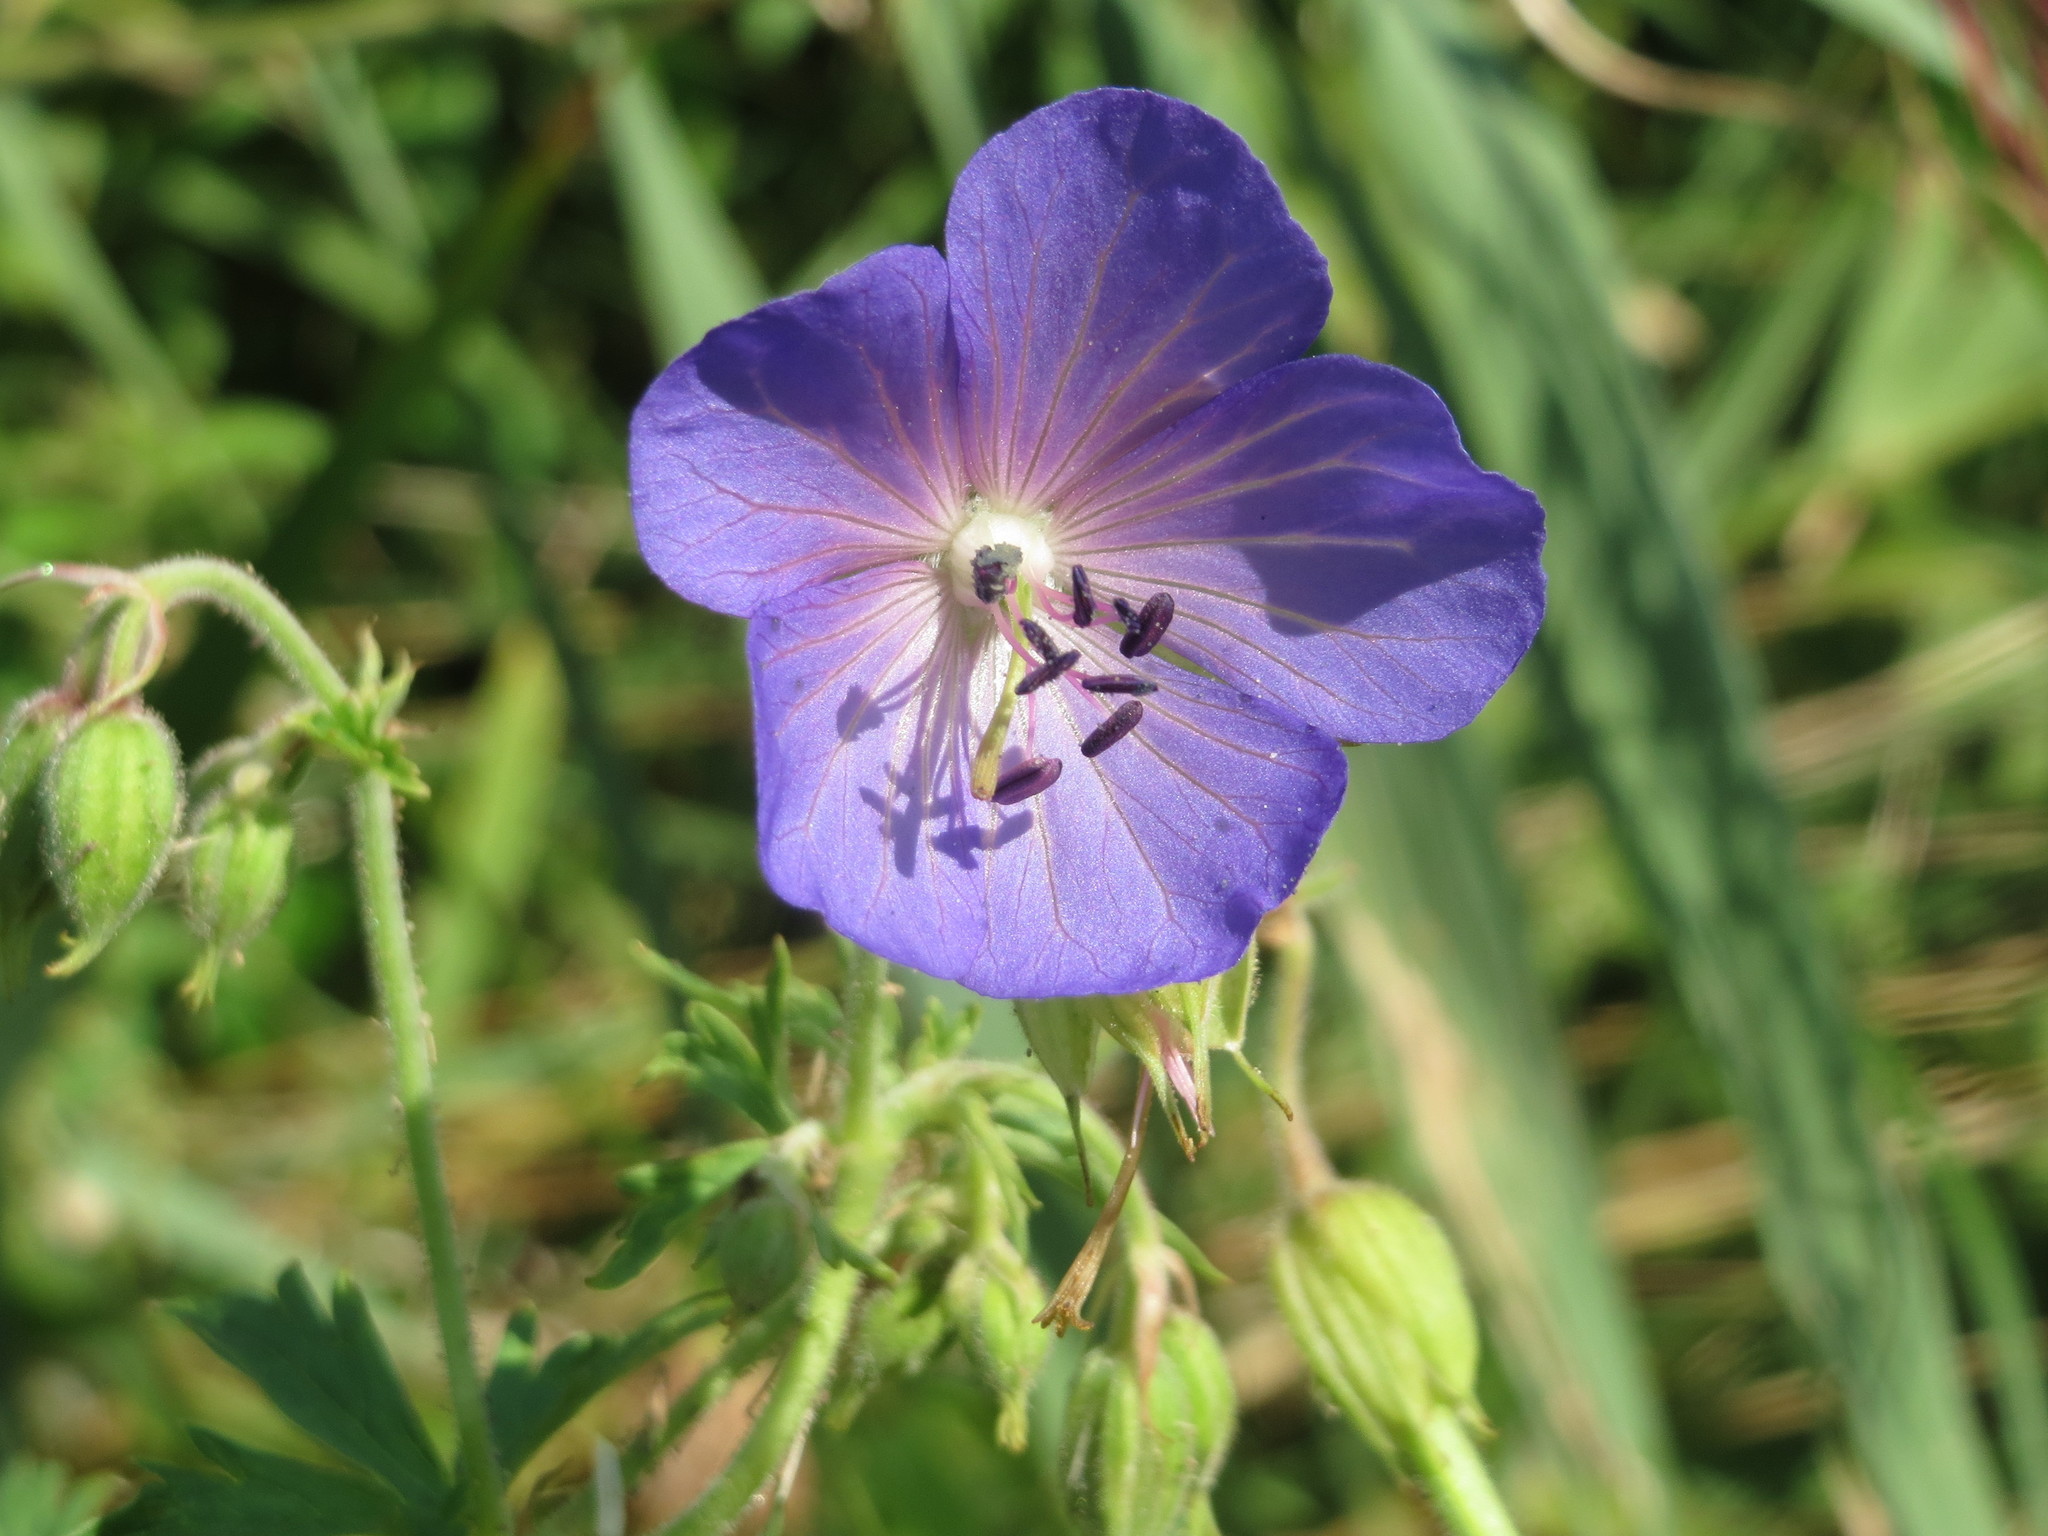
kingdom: Plantae
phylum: Tracheophyta
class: Magnoliopsida
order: Geraniales
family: Geraniaceae
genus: Geranium
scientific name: Geranium pratense
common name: Meadow crane's-bill
